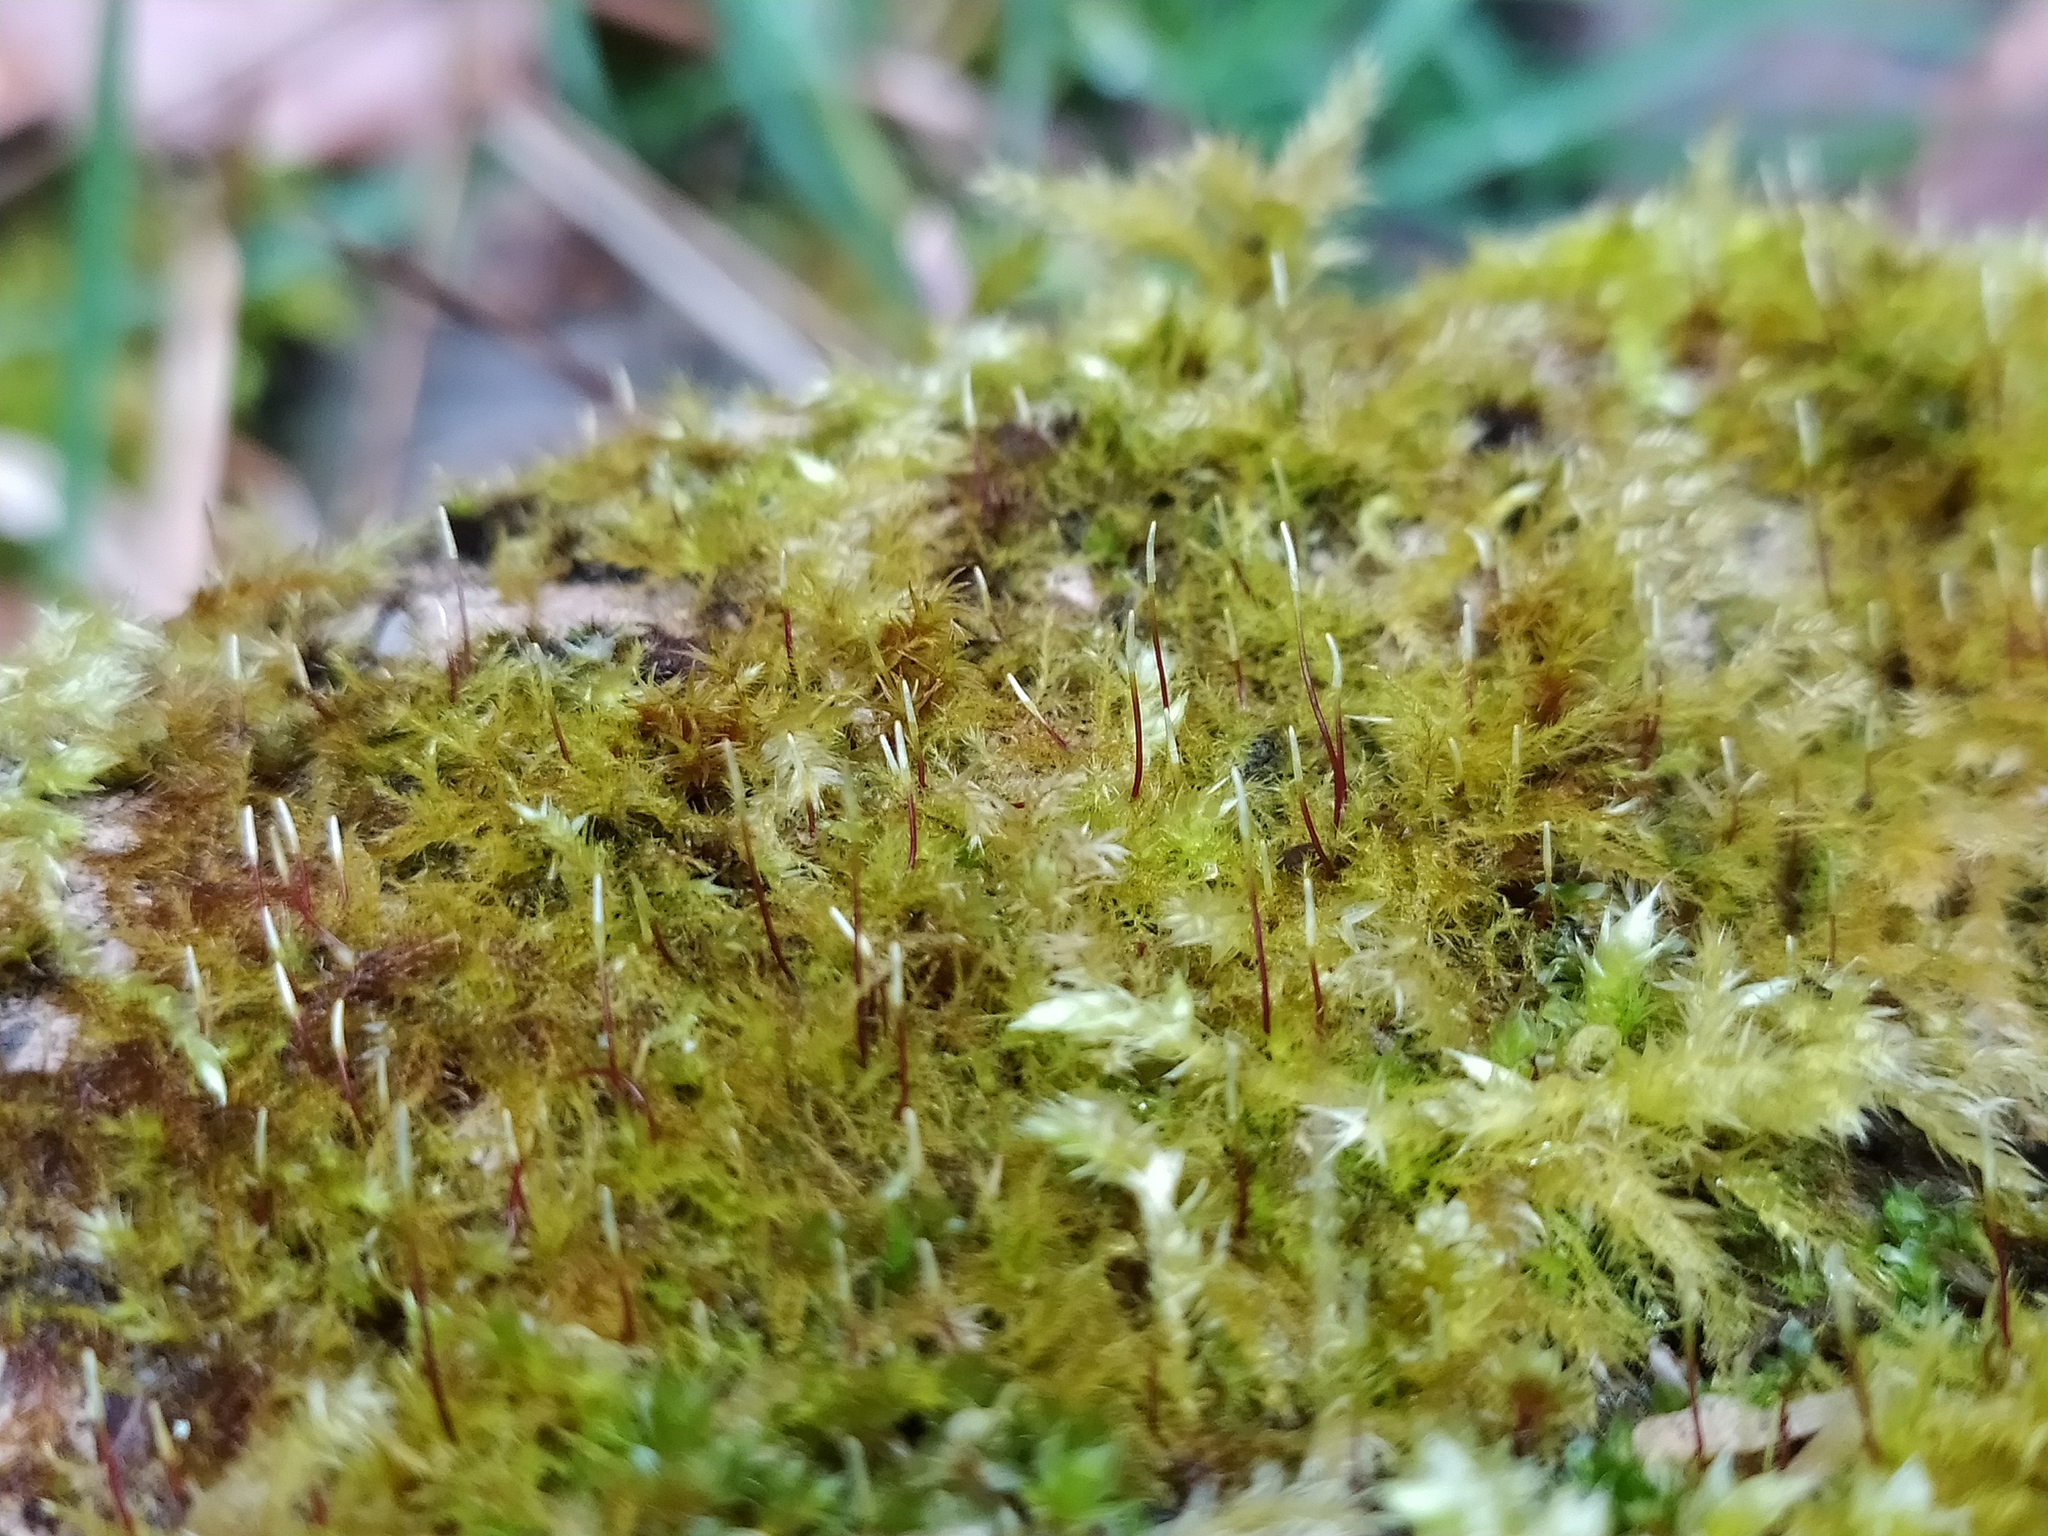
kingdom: Plantae
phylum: Bryophyta
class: Bryopsida
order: Hypnales
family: Amblystegiaceae
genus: Amblystegium
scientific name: Amblystegium serpens
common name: Jurkatzka's feather moss
